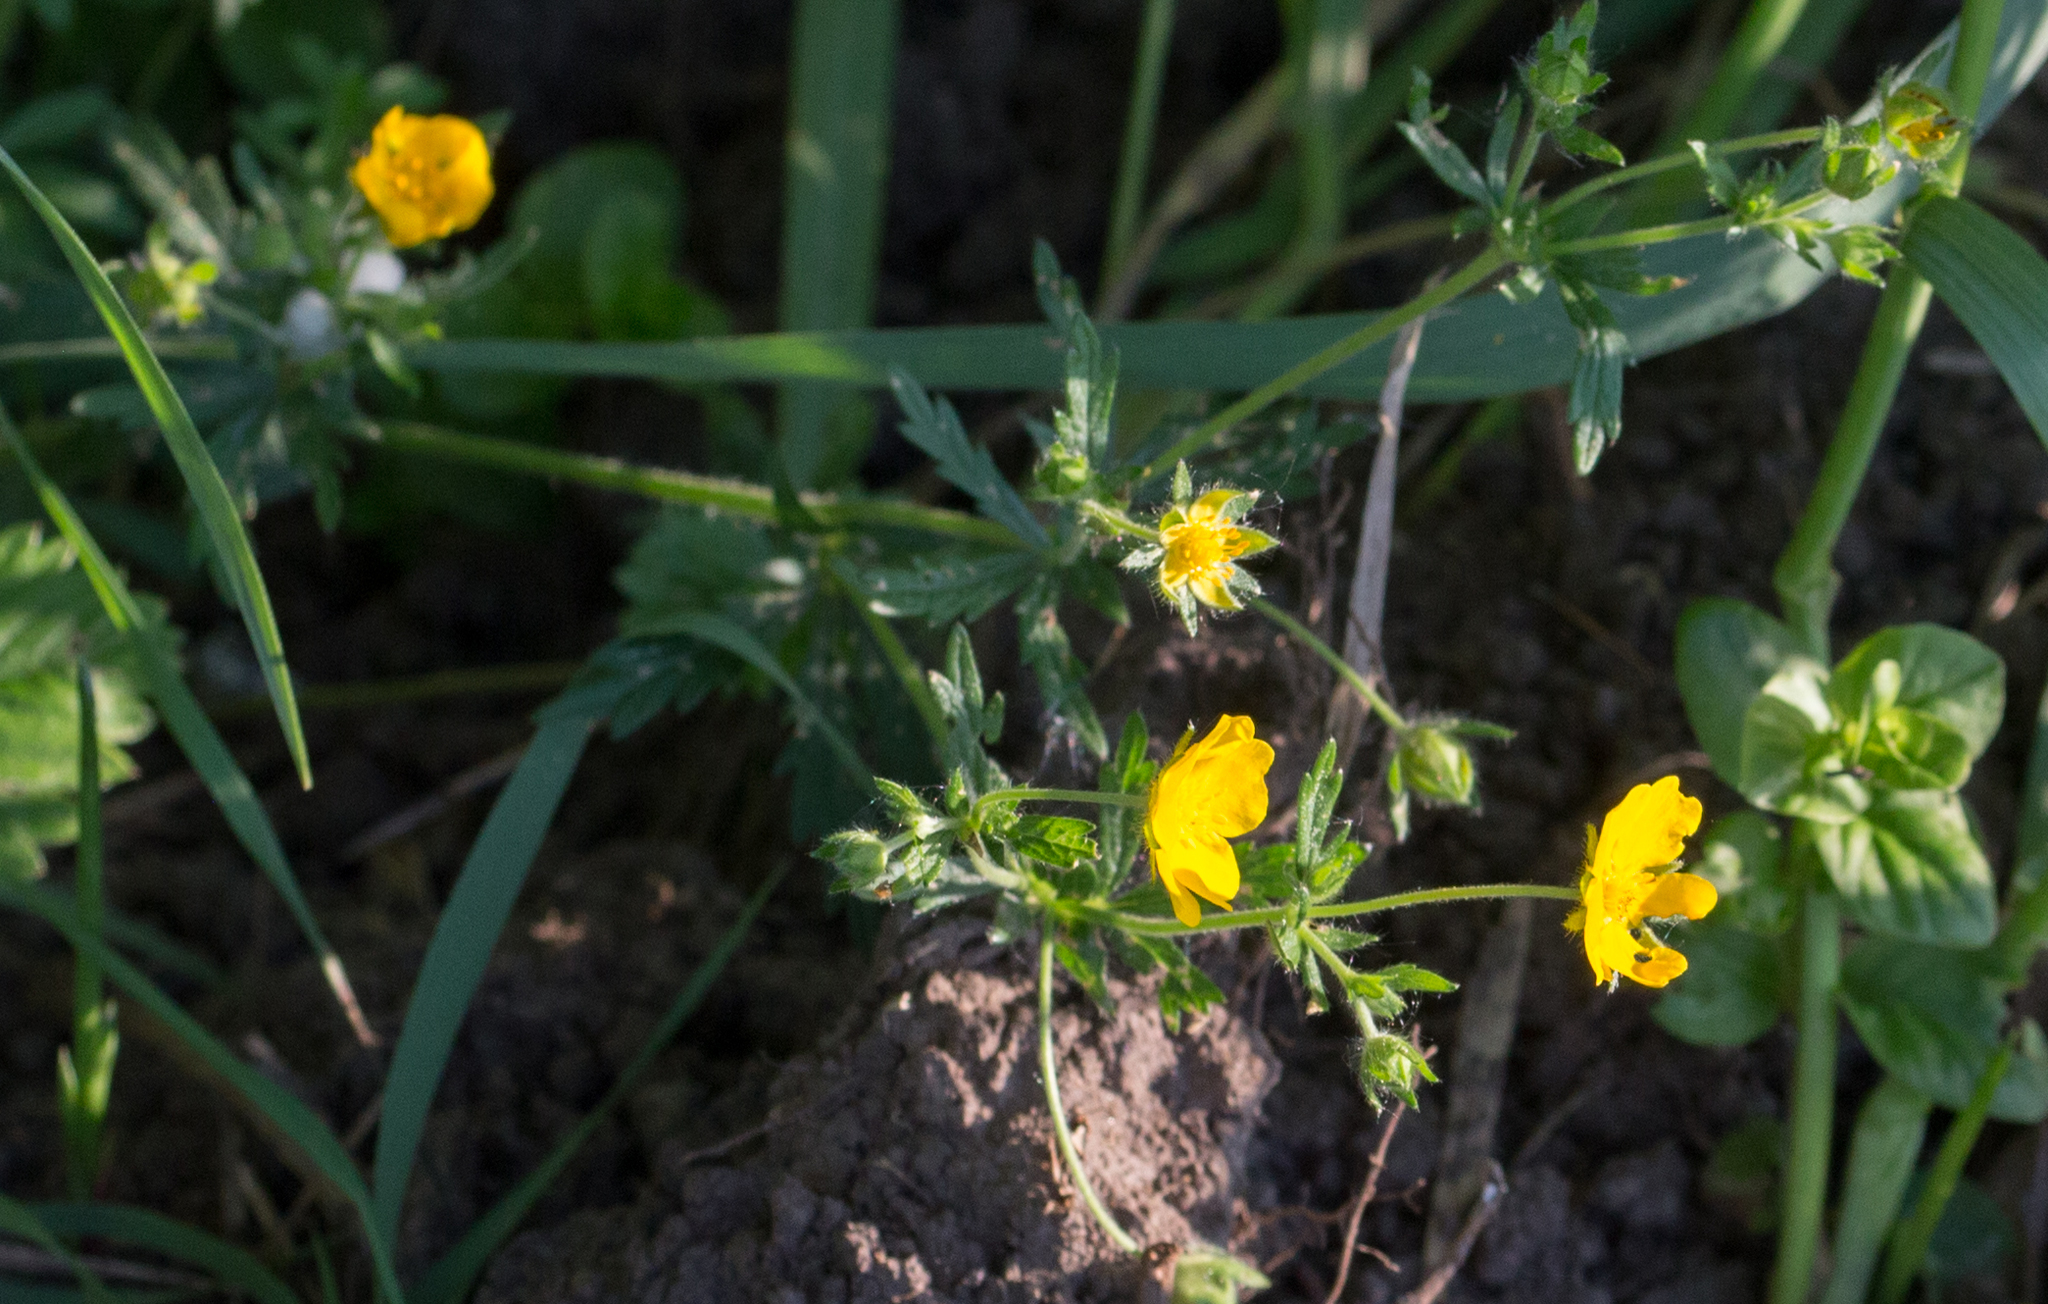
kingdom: Plantae
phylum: Tracheophyta
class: Magnoliopsida
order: Rosales
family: Rosaceae
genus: Potentilla
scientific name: Potentilla thuringiaca
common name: European cinquefoil
